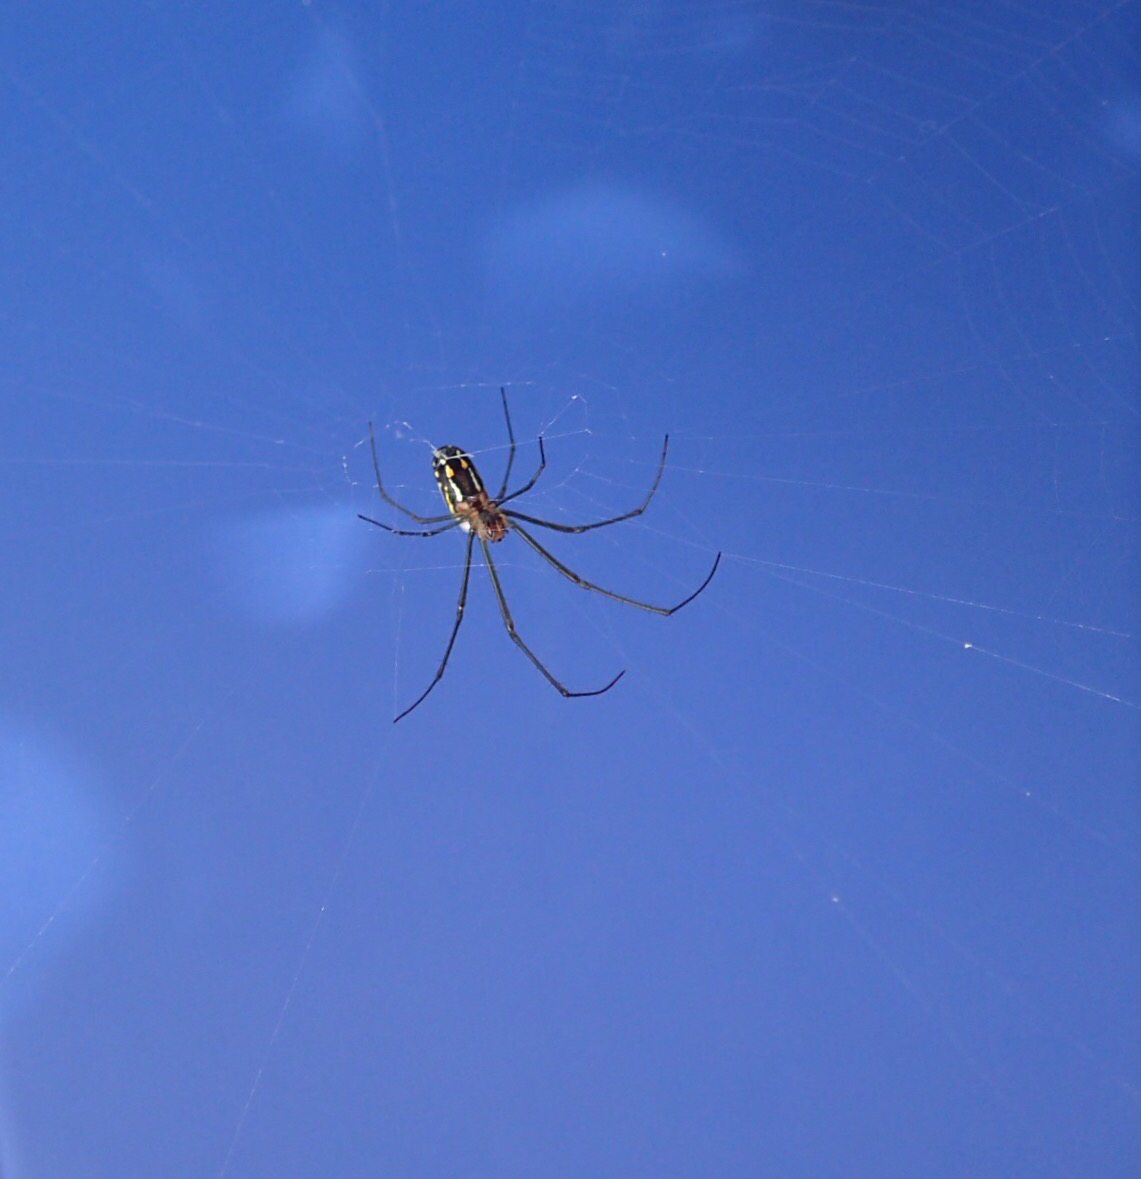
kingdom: Animalia
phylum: Arthropoda
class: Arachnida
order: Araneae
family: Tetragnathidae
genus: Leucauge
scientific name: Leucauge argyra
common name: Longjawed orb weavers
